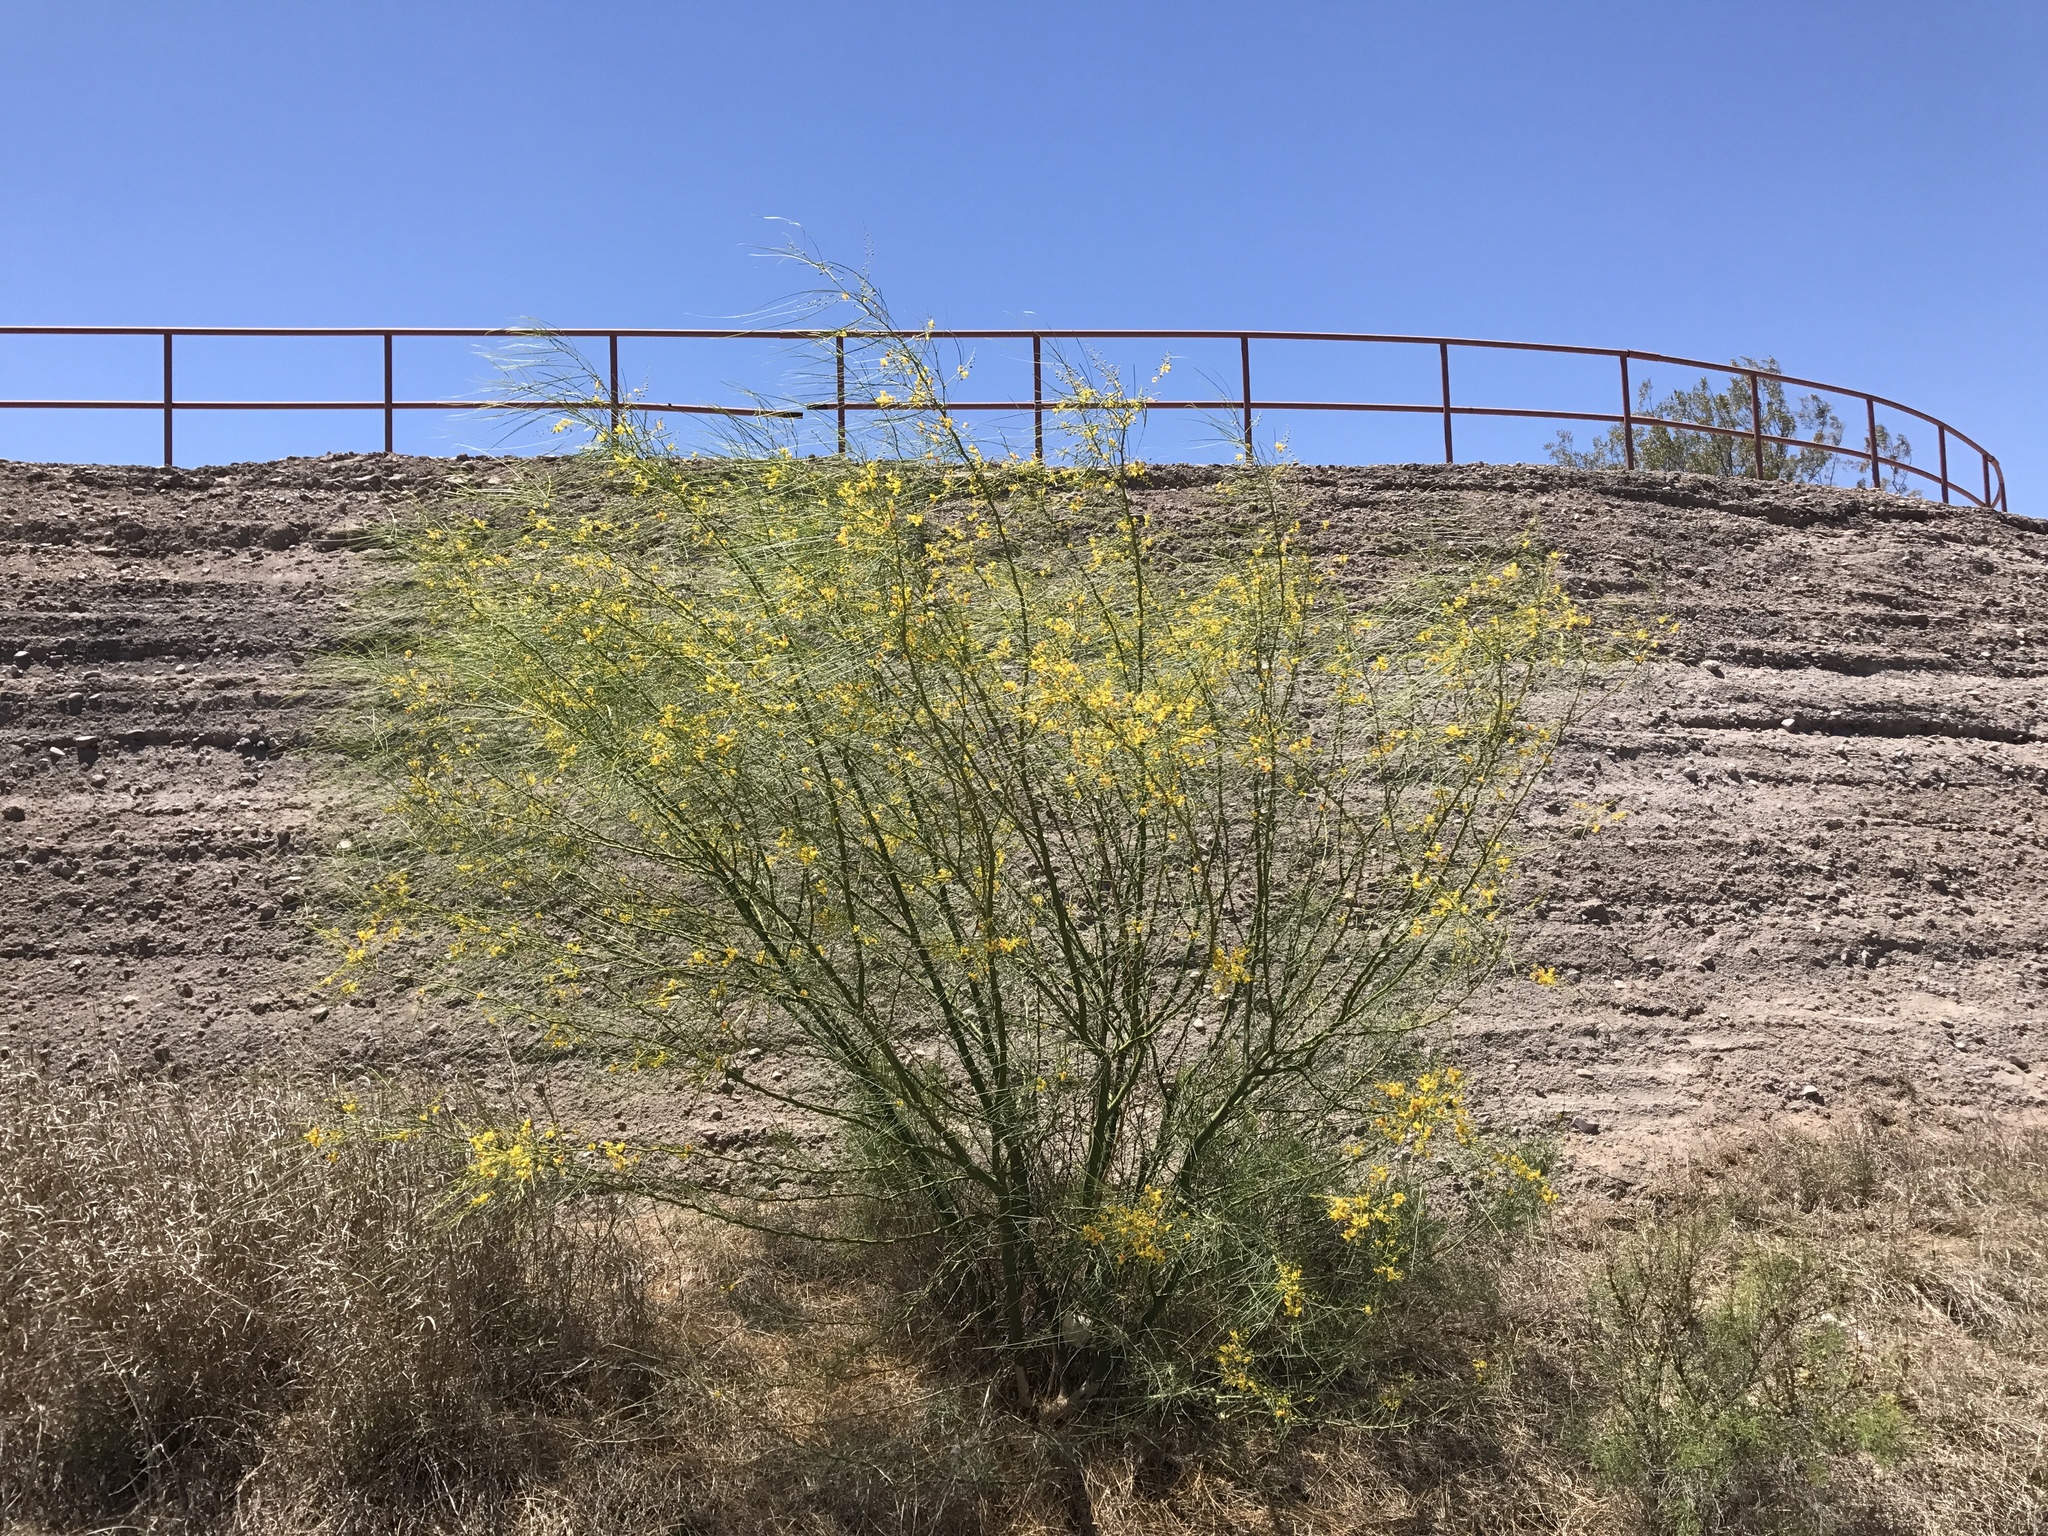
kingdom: Plantae
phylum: Tracheophyta
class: Magnoliopsida
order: Fabales
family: Fabaceae
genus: Parkinsonia
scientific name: Parkinsonia aculeata
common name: Jerusalem thorn
